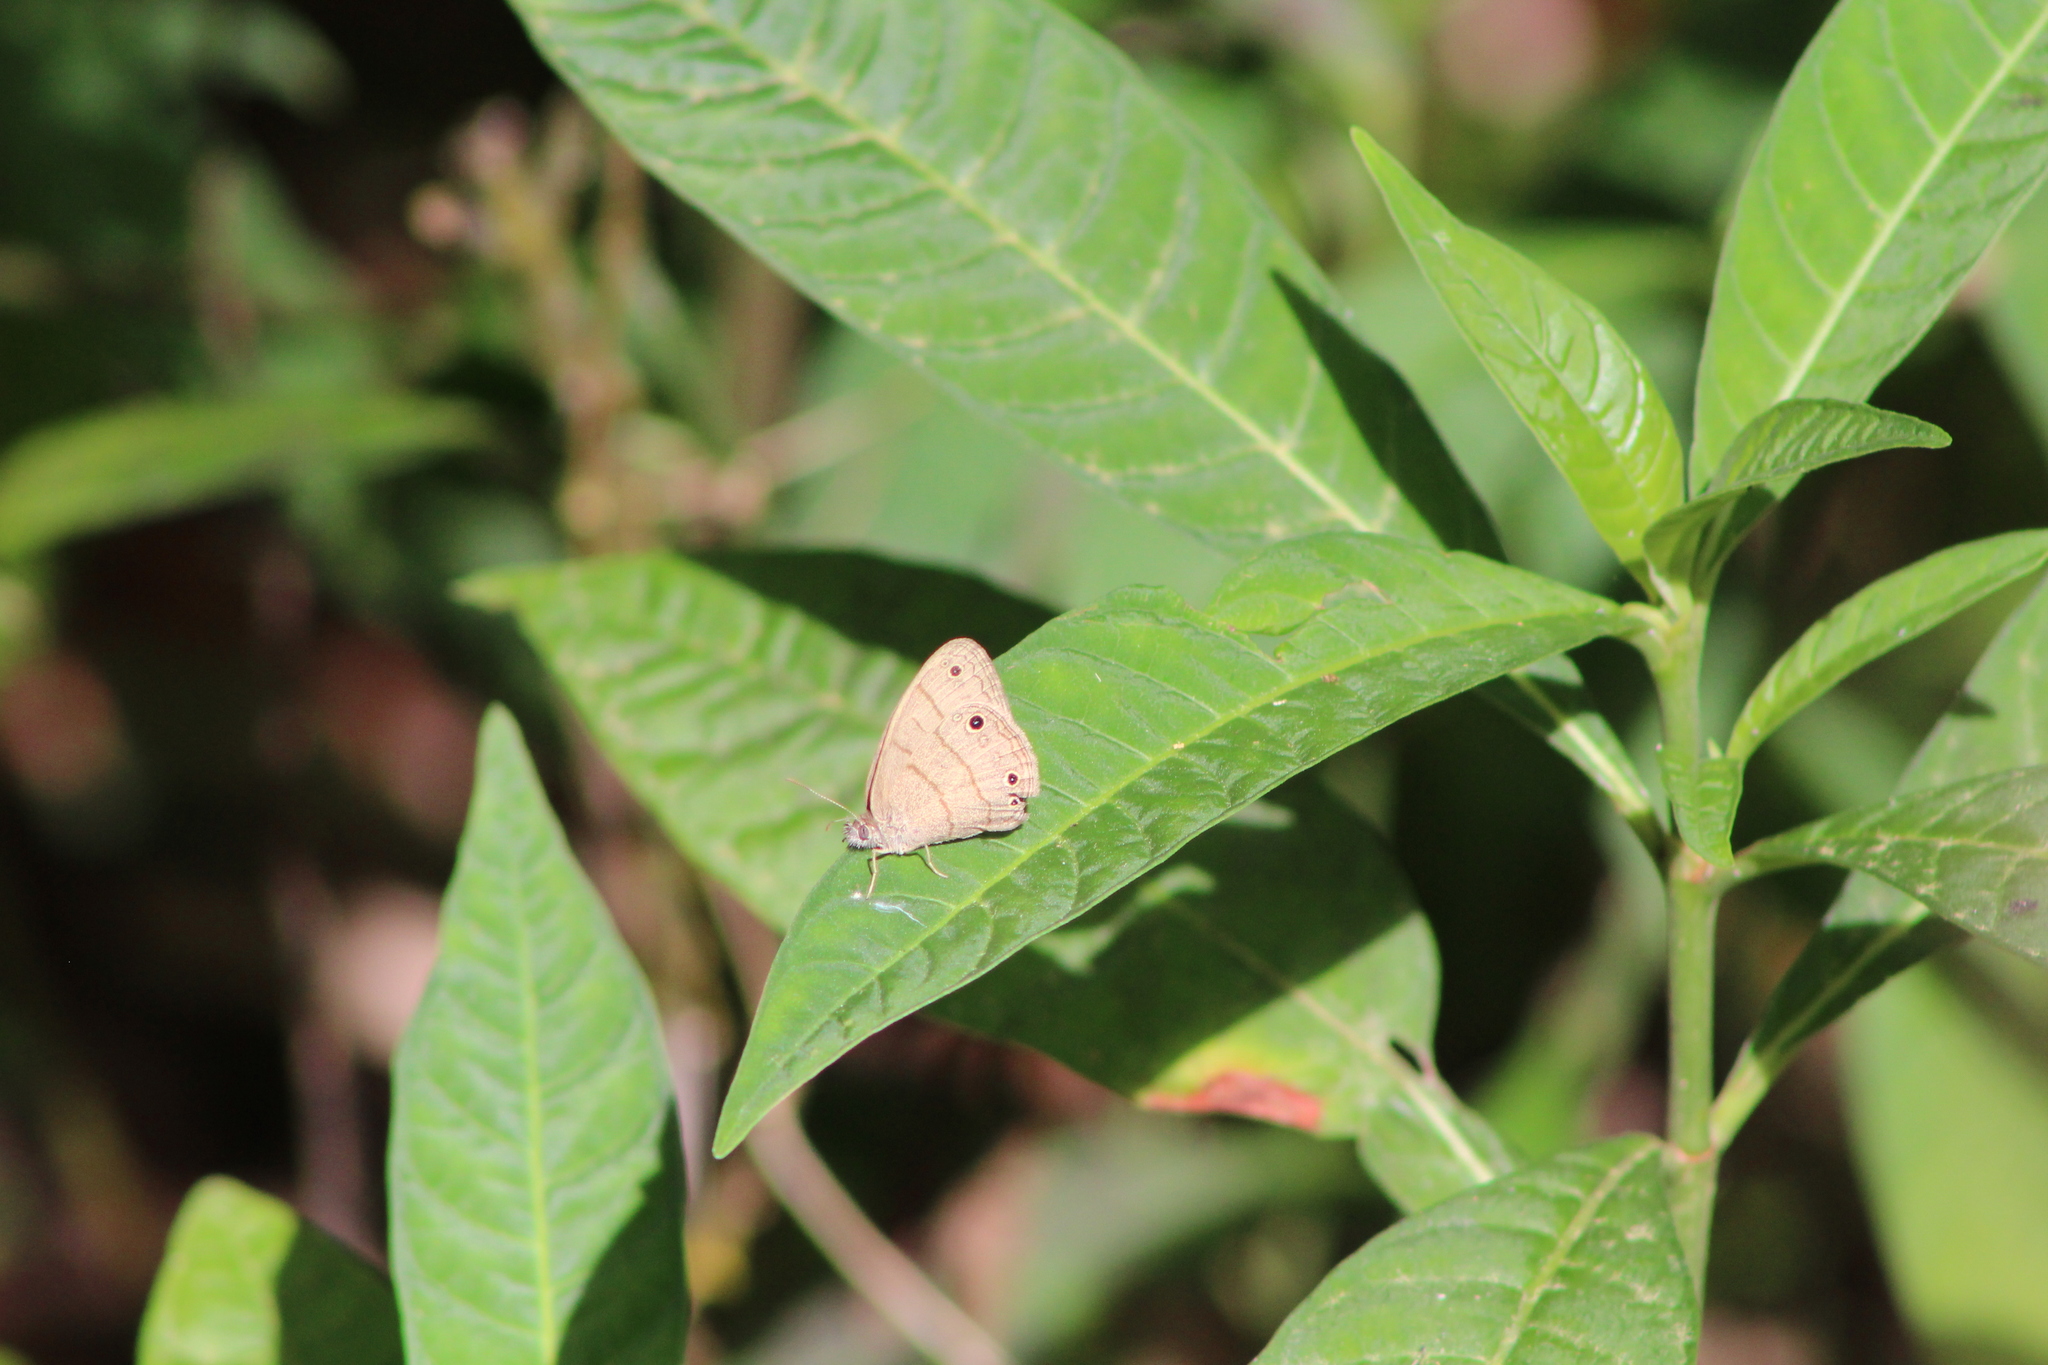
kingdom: Animalia
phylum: Arthropoda
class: Insecta
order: Lepidoptera
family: Nymphalidae
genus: Hermeuptychia
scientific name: Hermeuptychia intricata
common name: Intricate satyr
